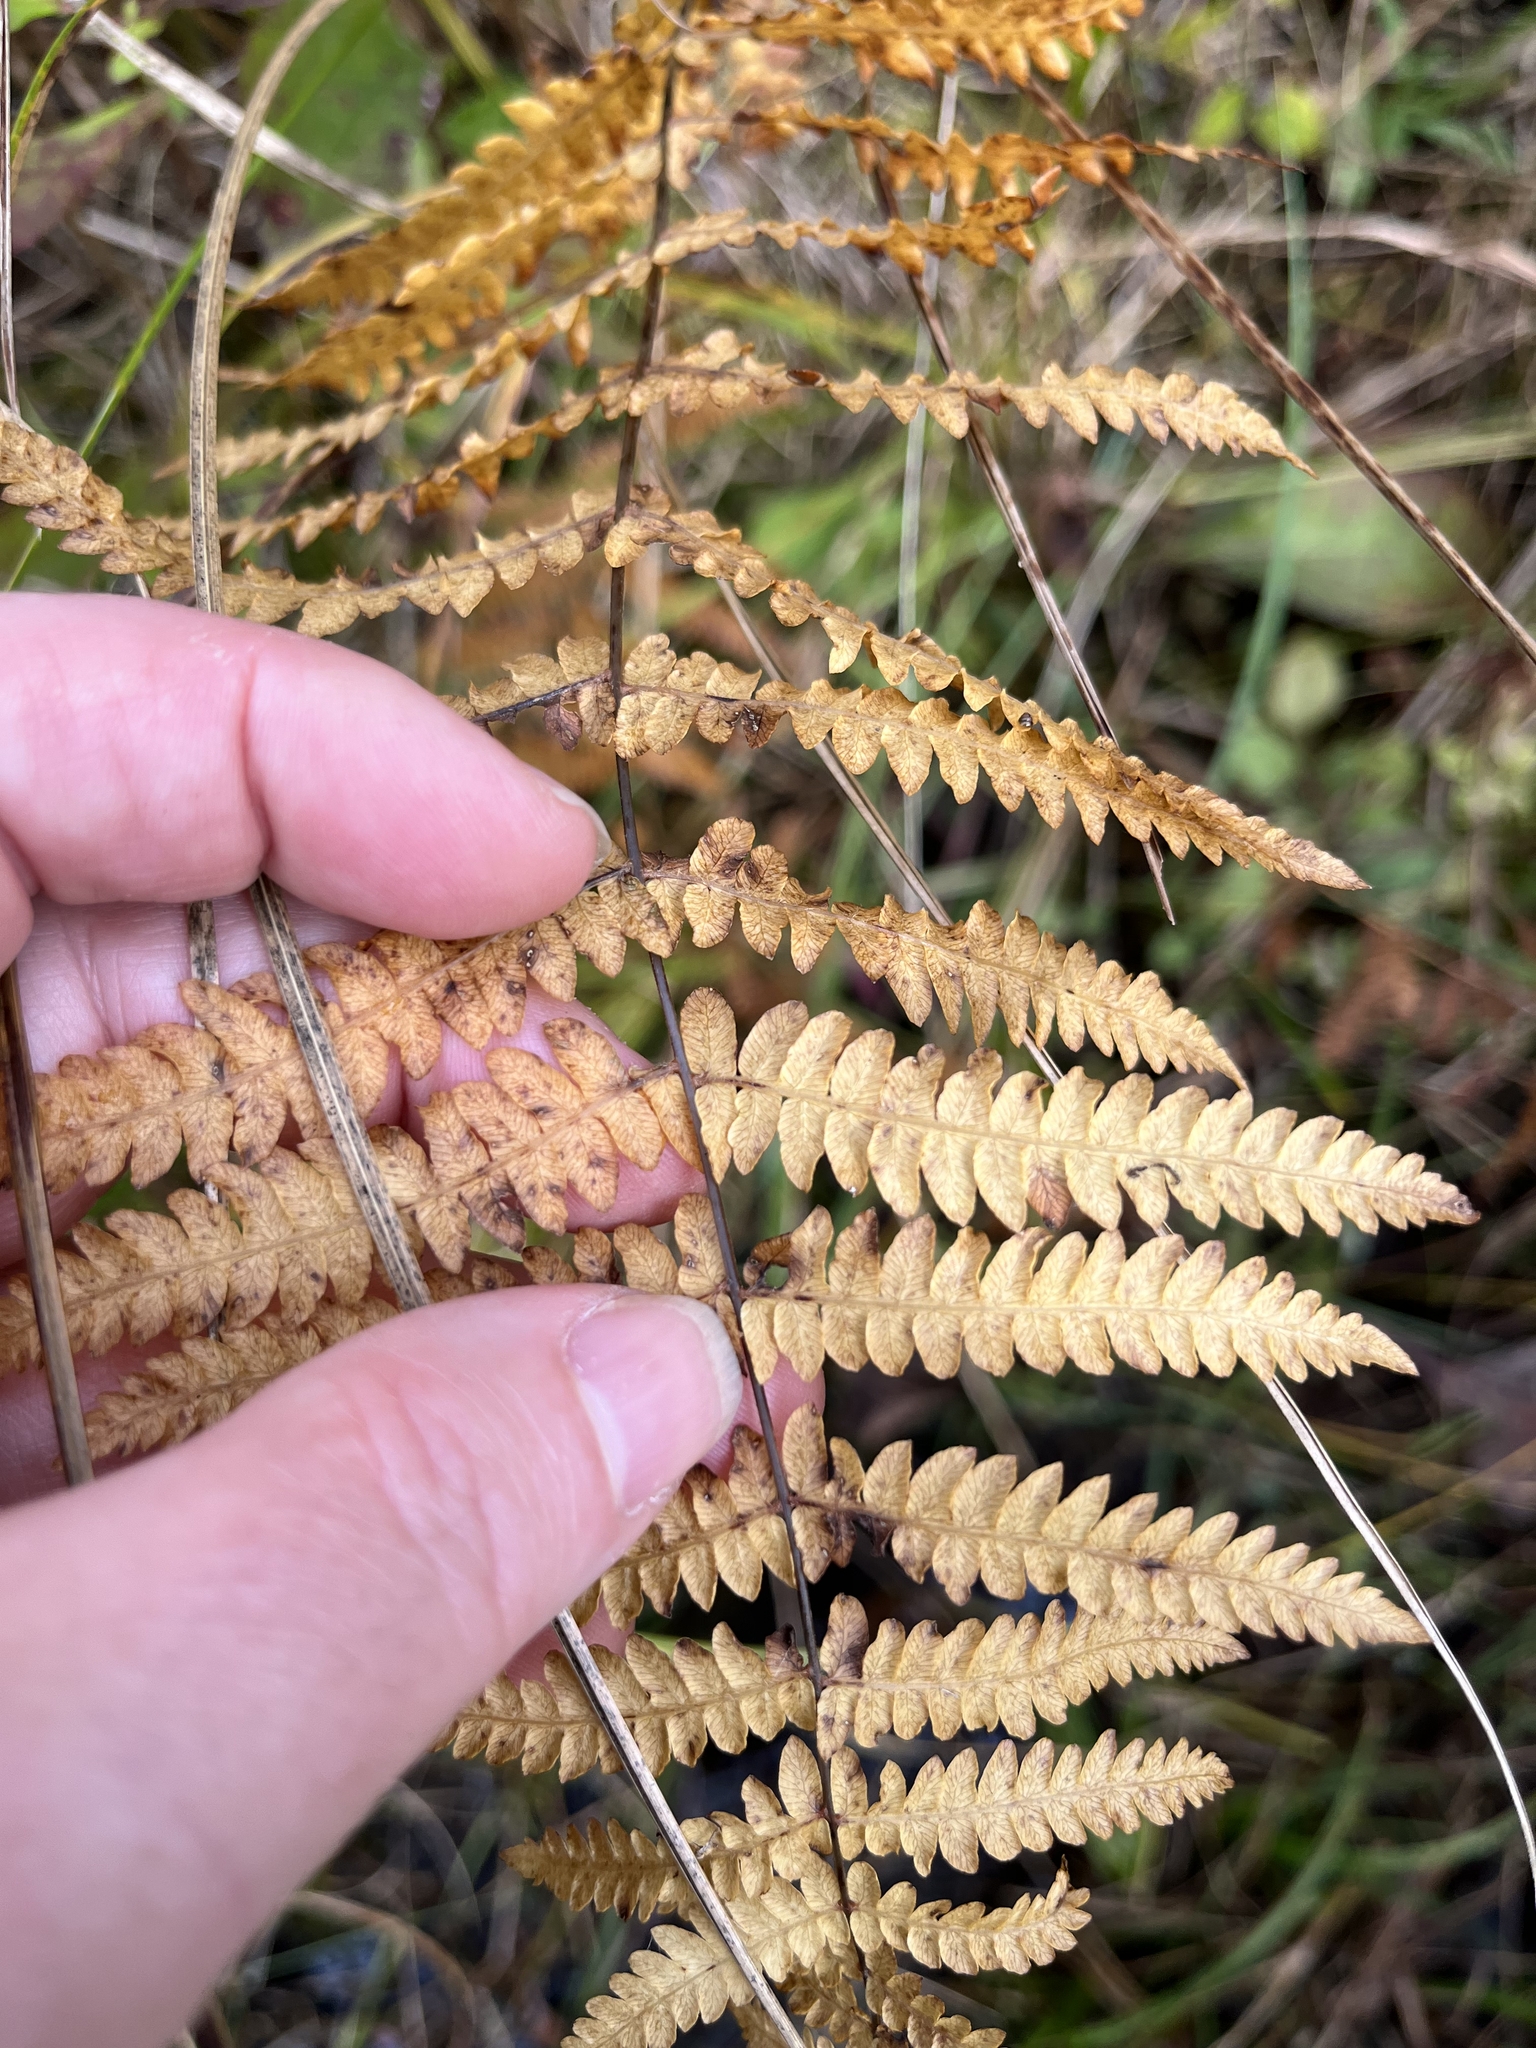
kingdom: Plantae
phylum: Tracheophyta
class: Polypodiopsida
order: Polypodiales
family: Thelypteridaceae
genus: Thelypteris
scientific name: Thelypteris palustris
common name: Marsh fern
